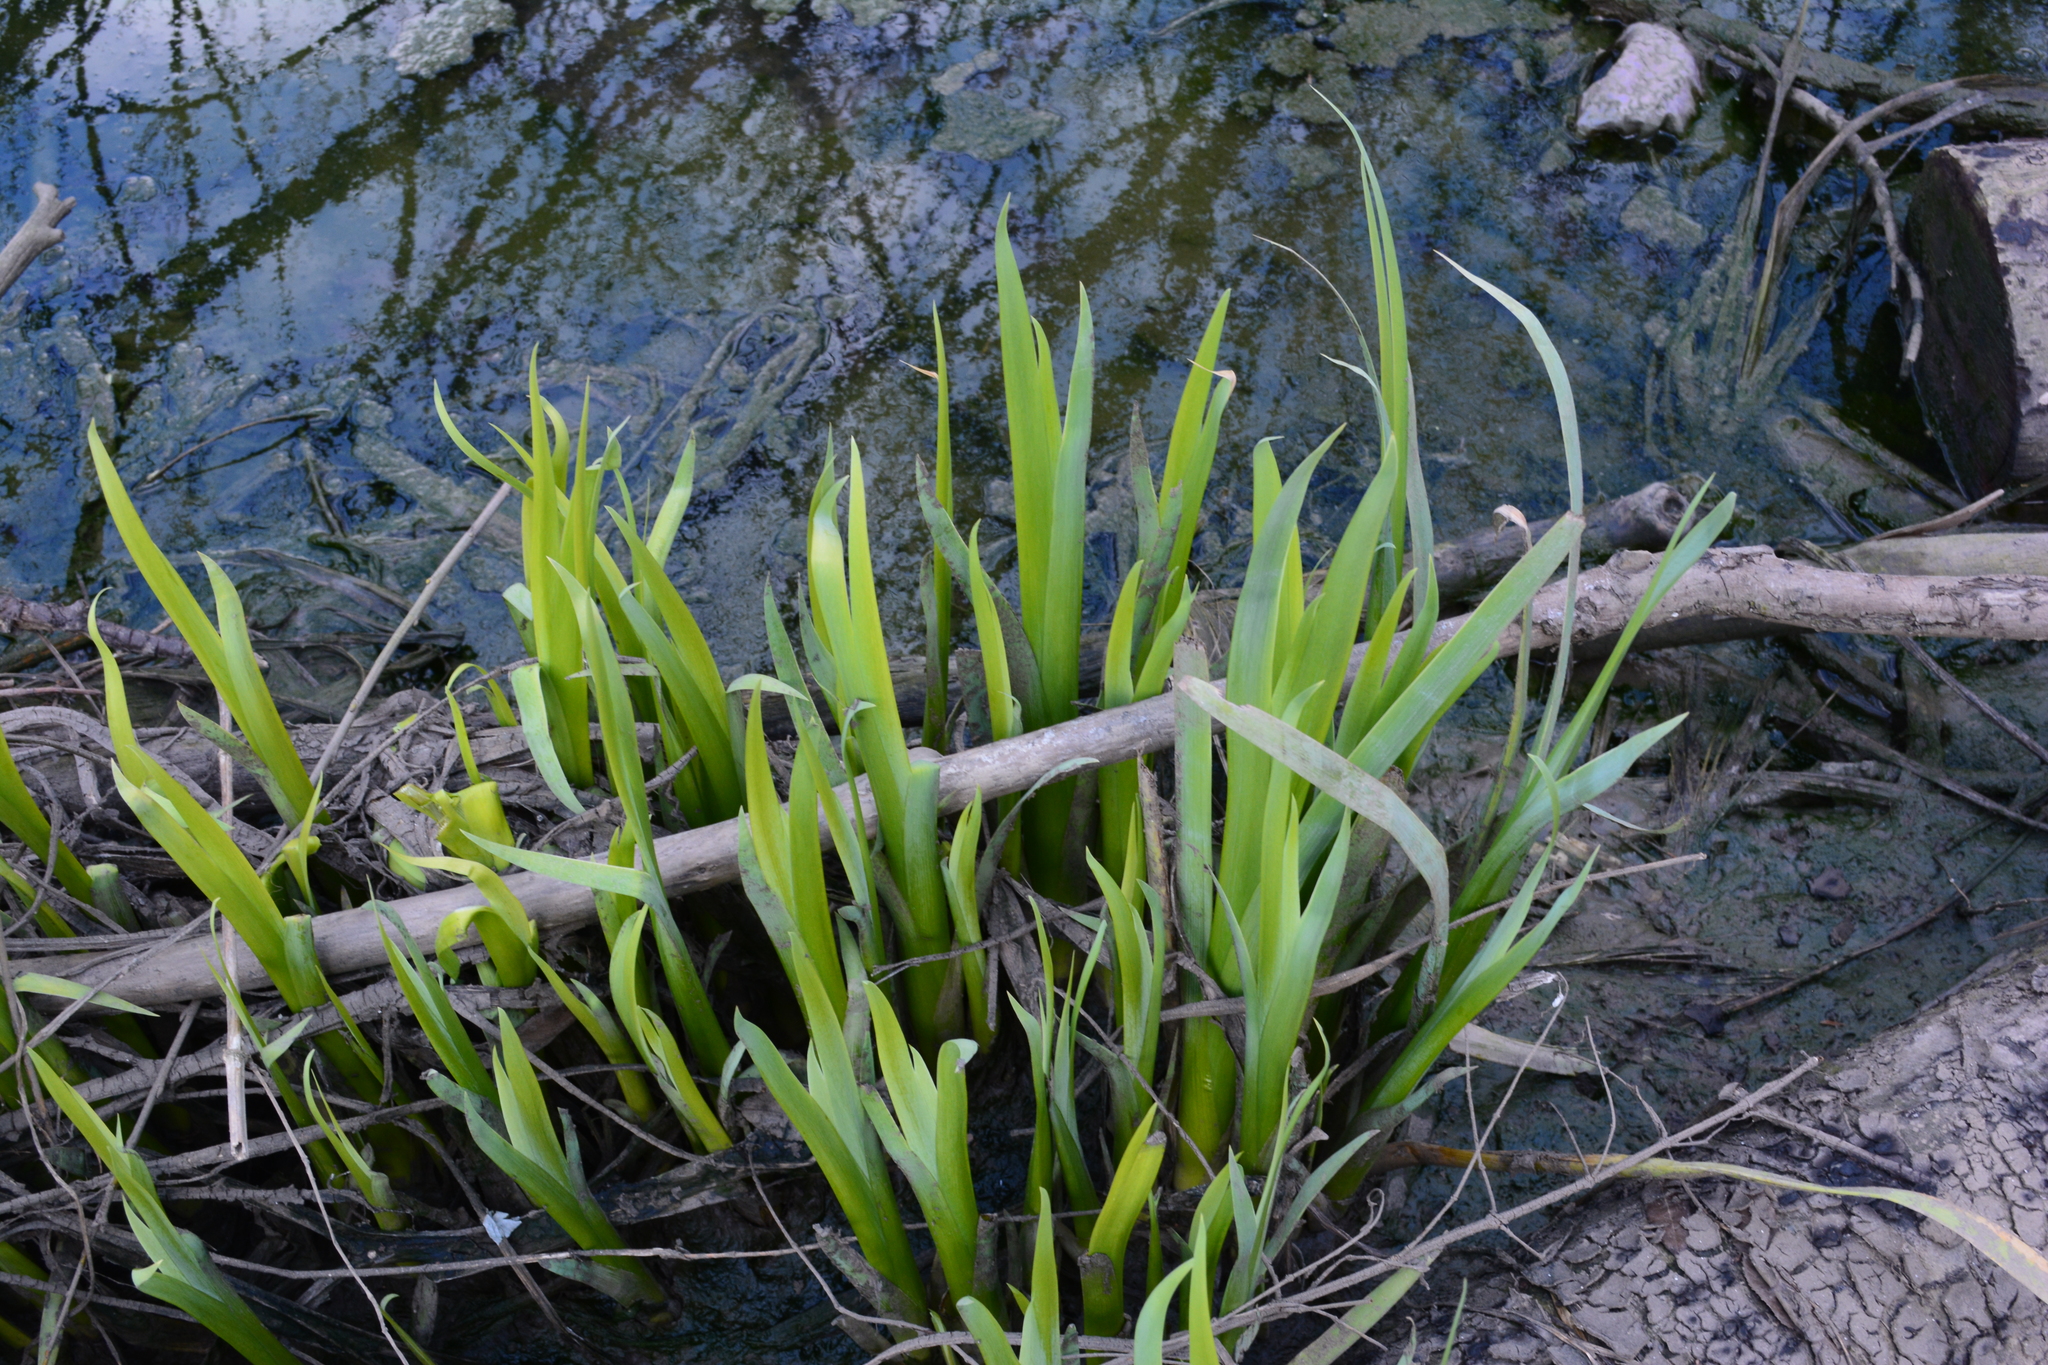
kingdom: Plantae
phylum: Tracheophyta
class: Liliopsida
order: Asparagales
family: Iridaceae
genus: Iris
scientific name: Iris pseudacorus
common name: Yellow flag
